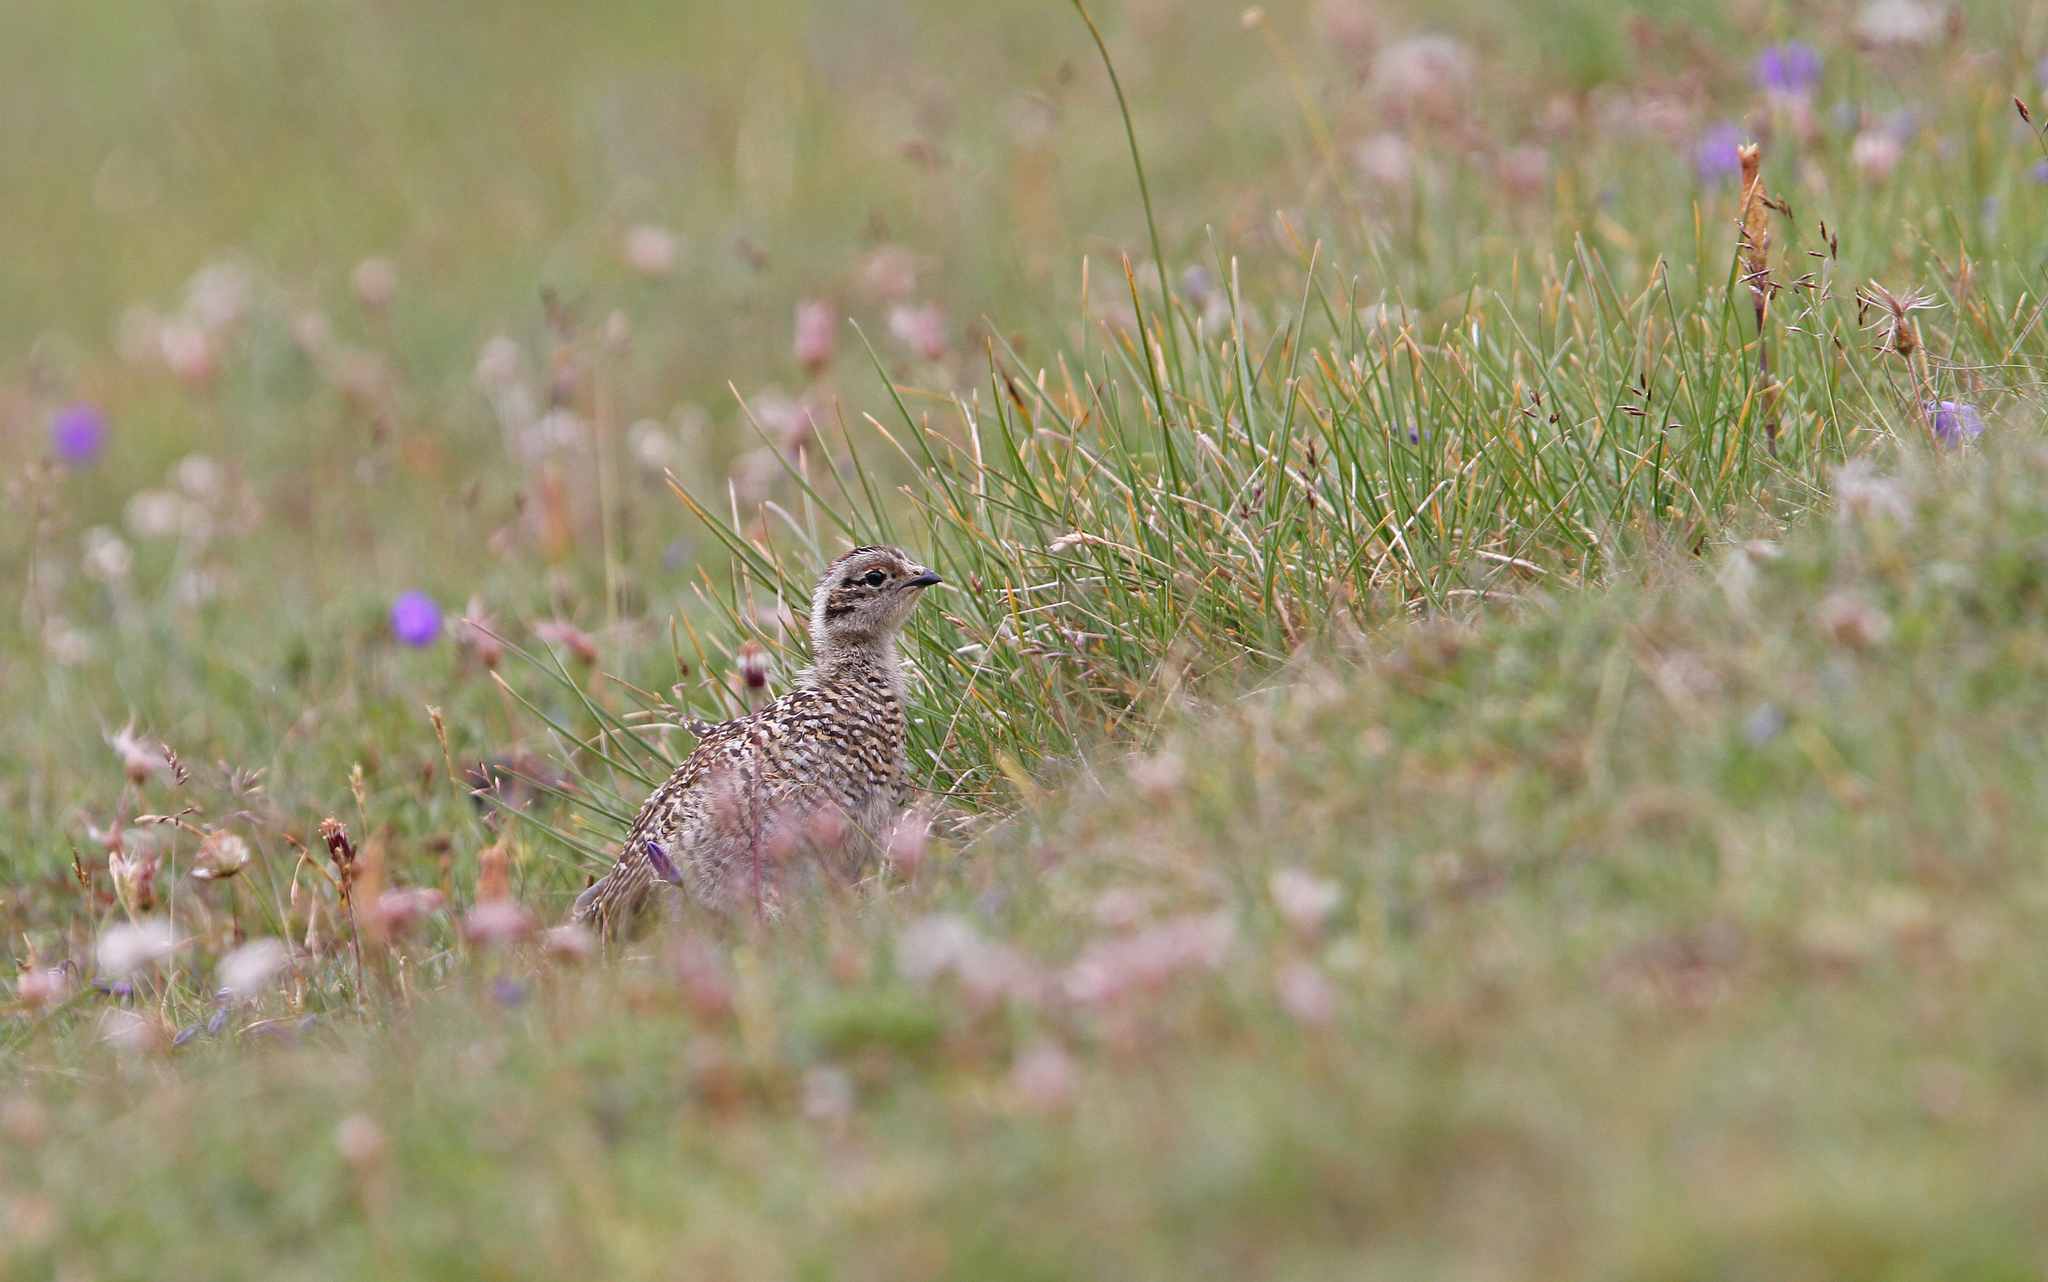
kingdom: Animalia
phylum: Chordata
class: Aves
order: Galliformes
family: Phasianidae
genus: Lagopus
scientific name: Lagopus muta
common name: Rock ptarmigan
